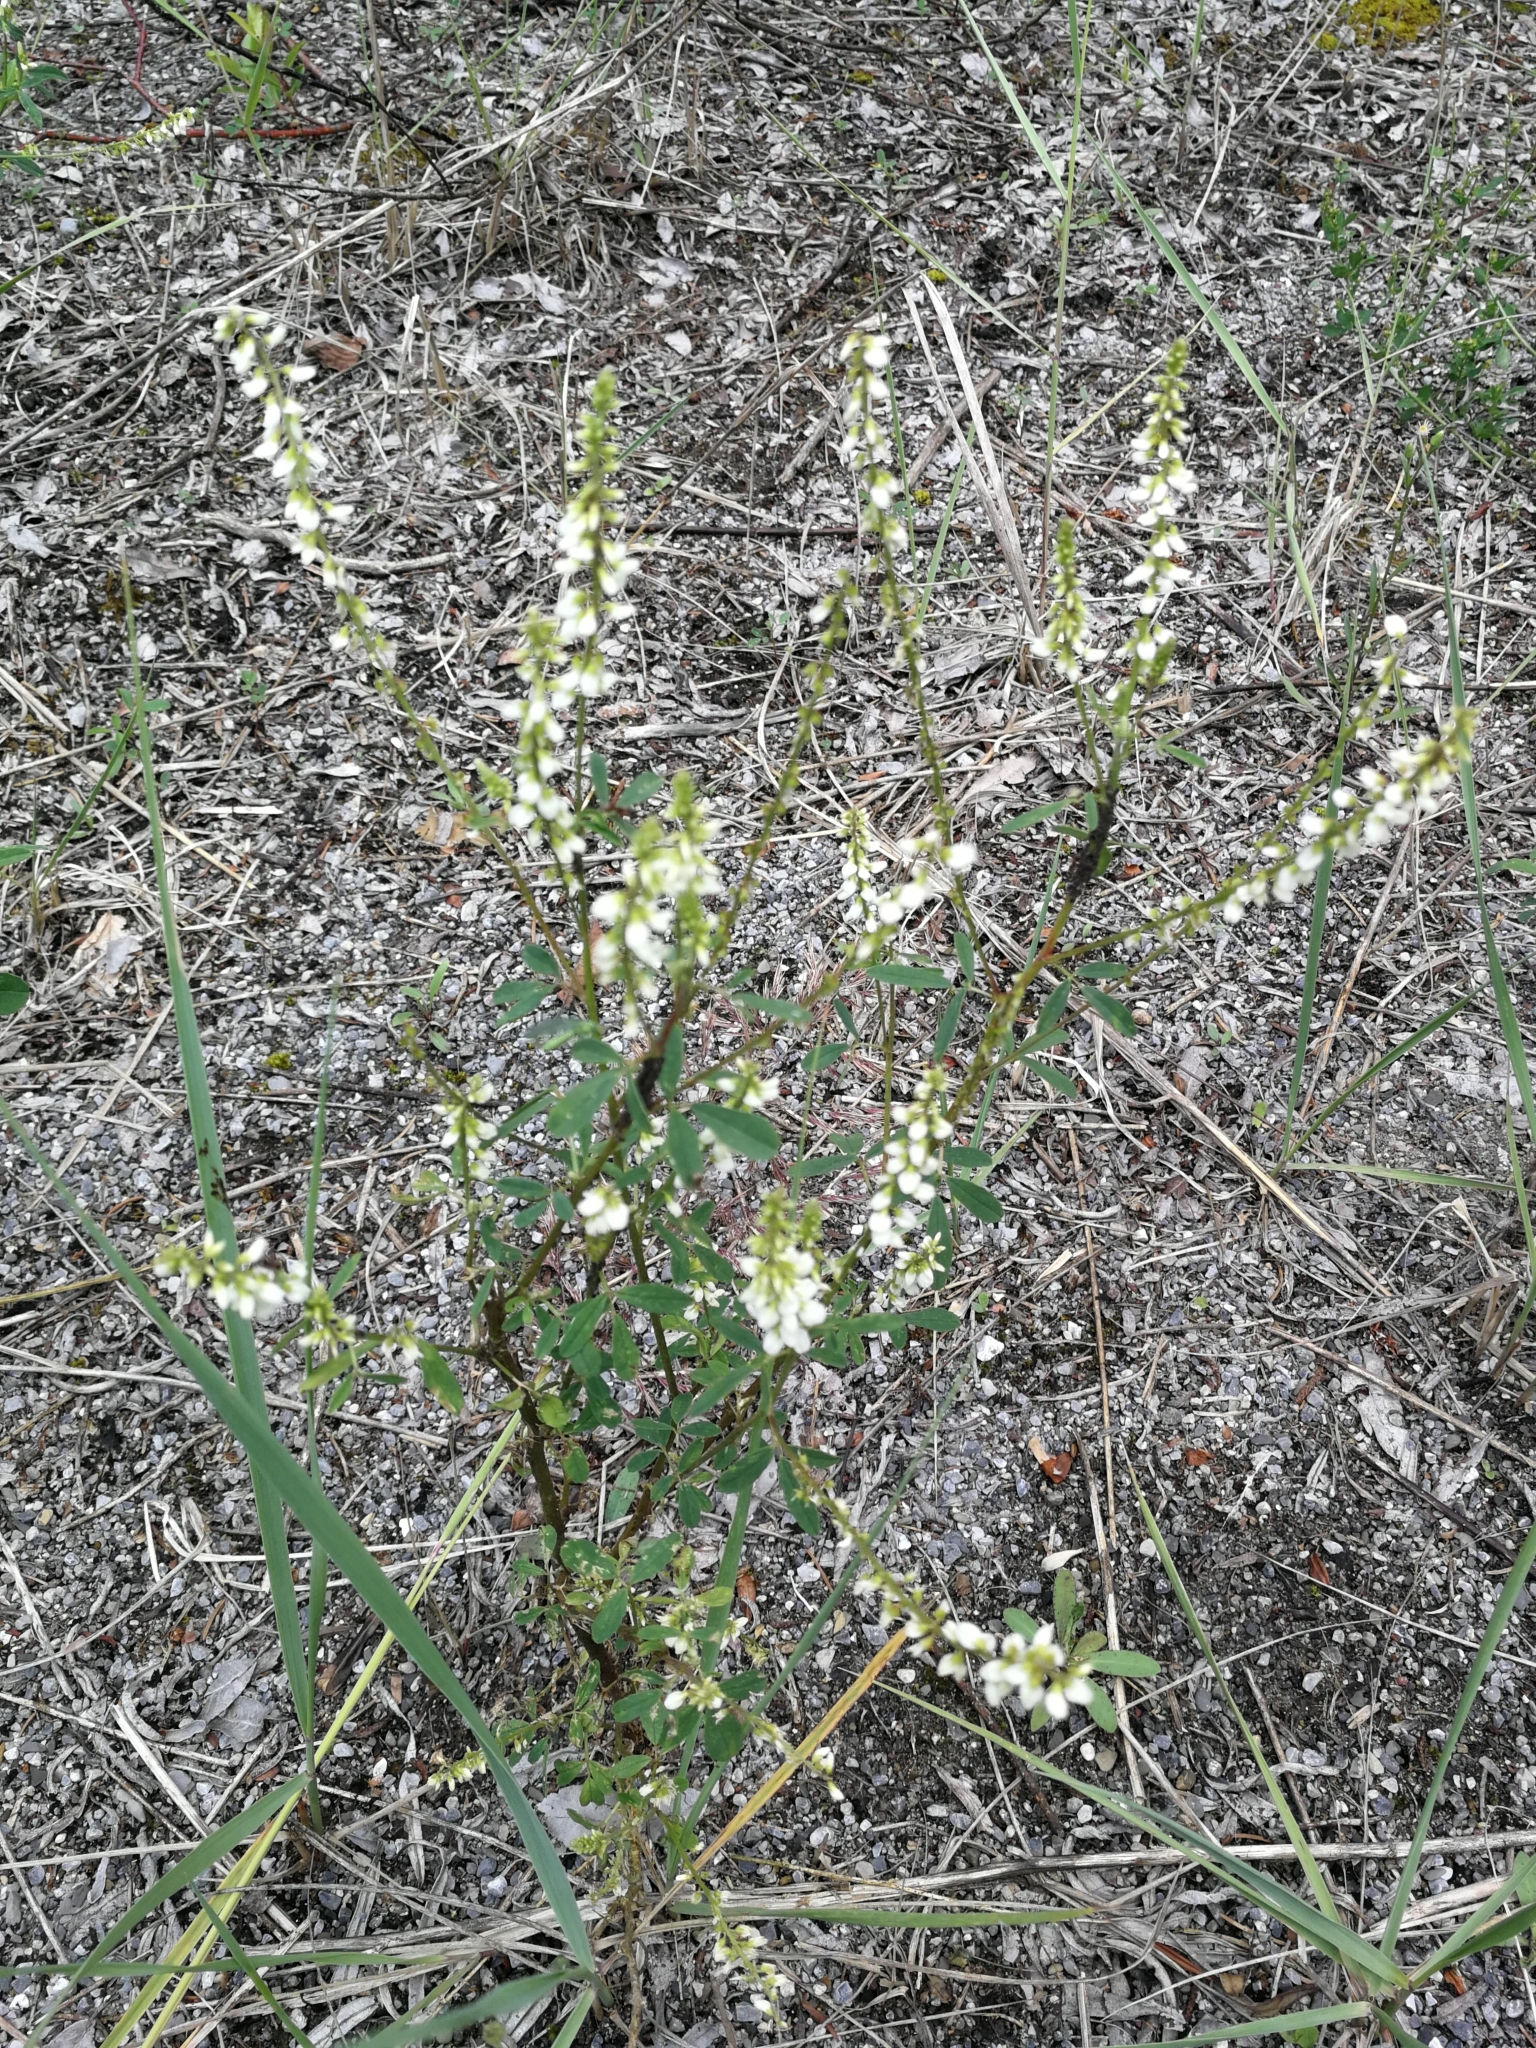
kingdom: Plantae
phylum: Tracheophyta
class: Magnoliopsida
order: Fabales
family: Fabaceae
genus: Melilotus
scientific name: Melilotus albus
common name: White melilot
